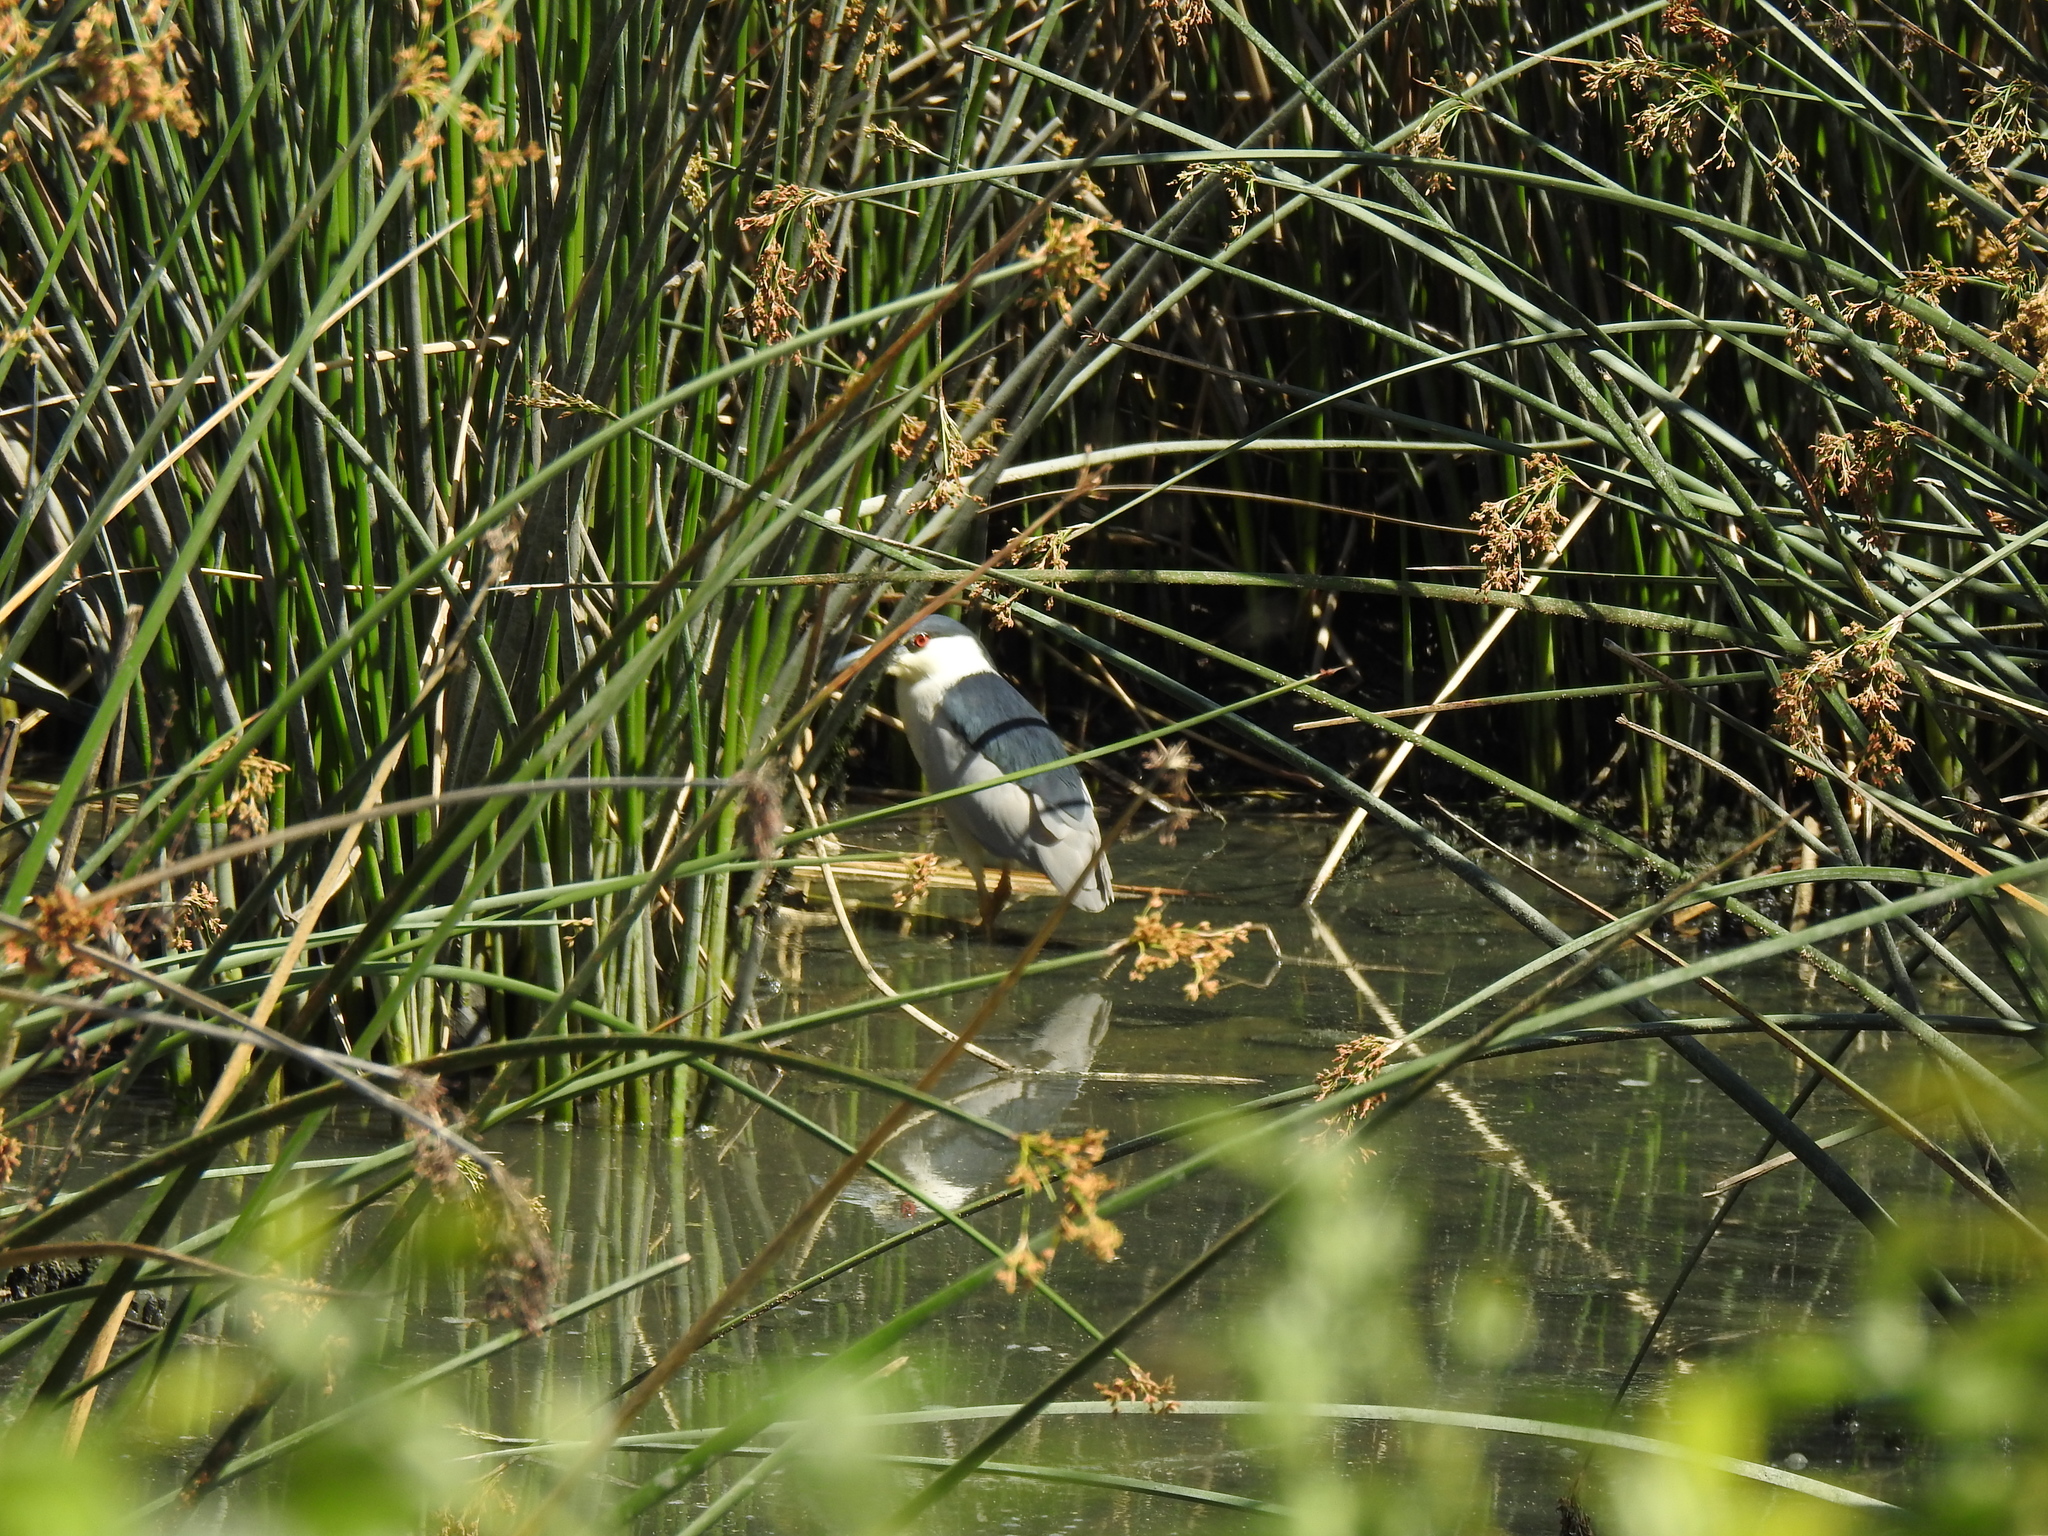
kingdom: Animalia
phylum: Chordata
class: Aves
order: Pelecaniformes
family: Ardeidae
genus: Nycticorax
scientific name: Nycticorax nycticorax
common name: Black-crowned night heron
